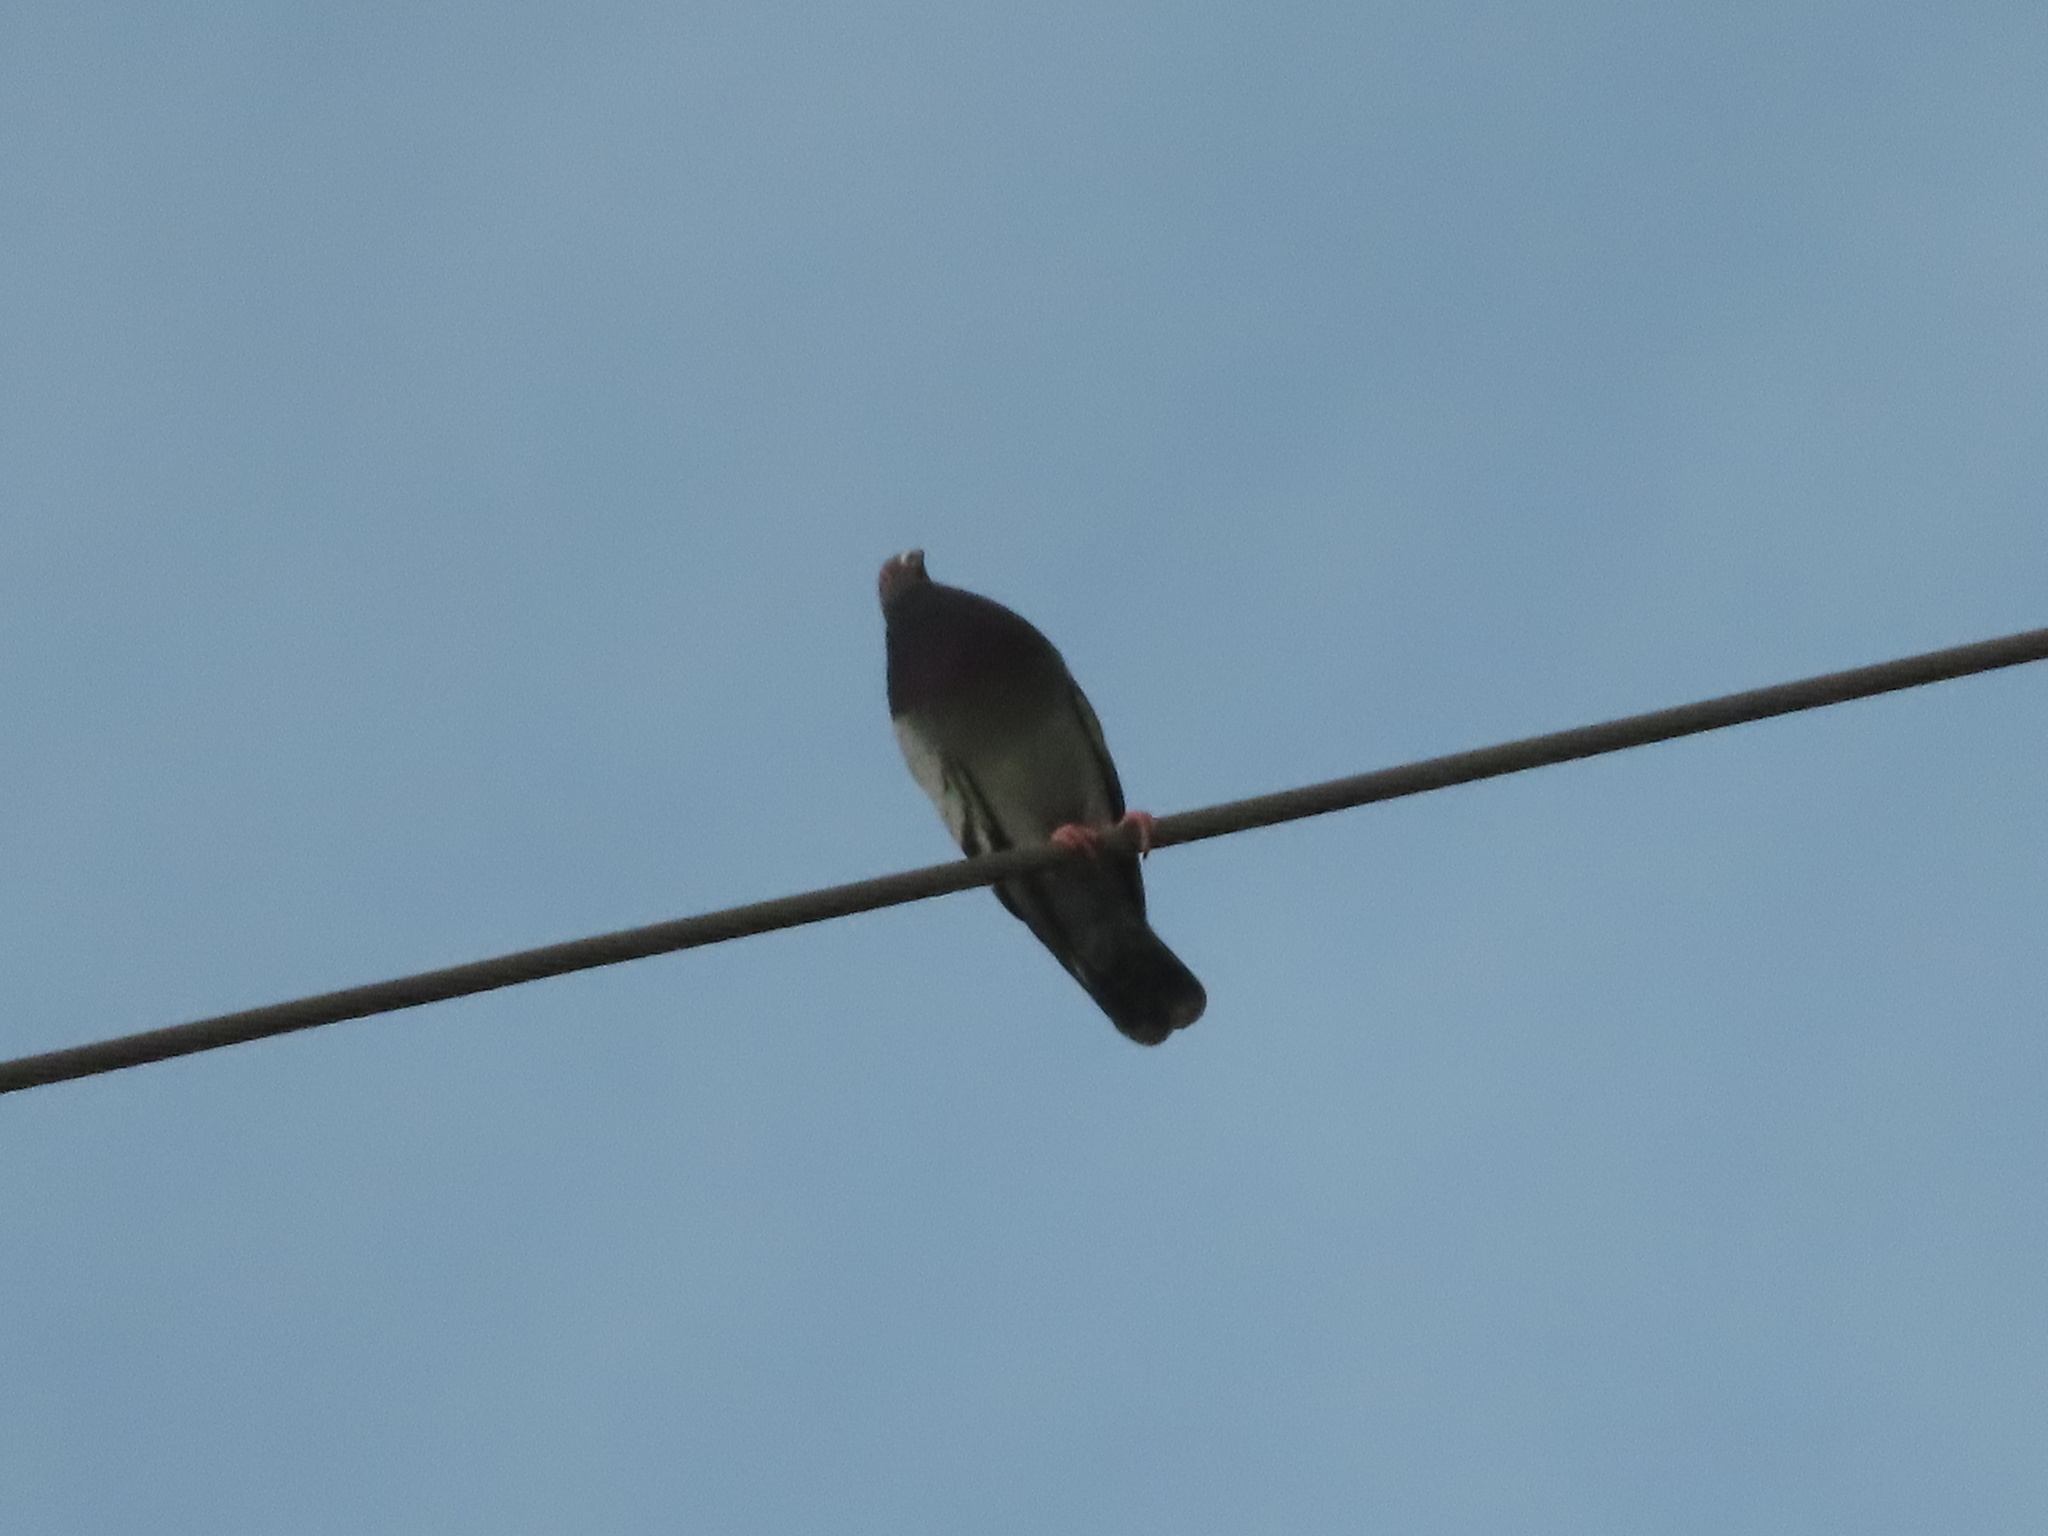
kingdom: Animalia
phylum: Chordata
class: Aves
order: Columbiformes
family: Columbidae
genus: Columba
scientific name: Columba livia
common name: Rock pigeon
